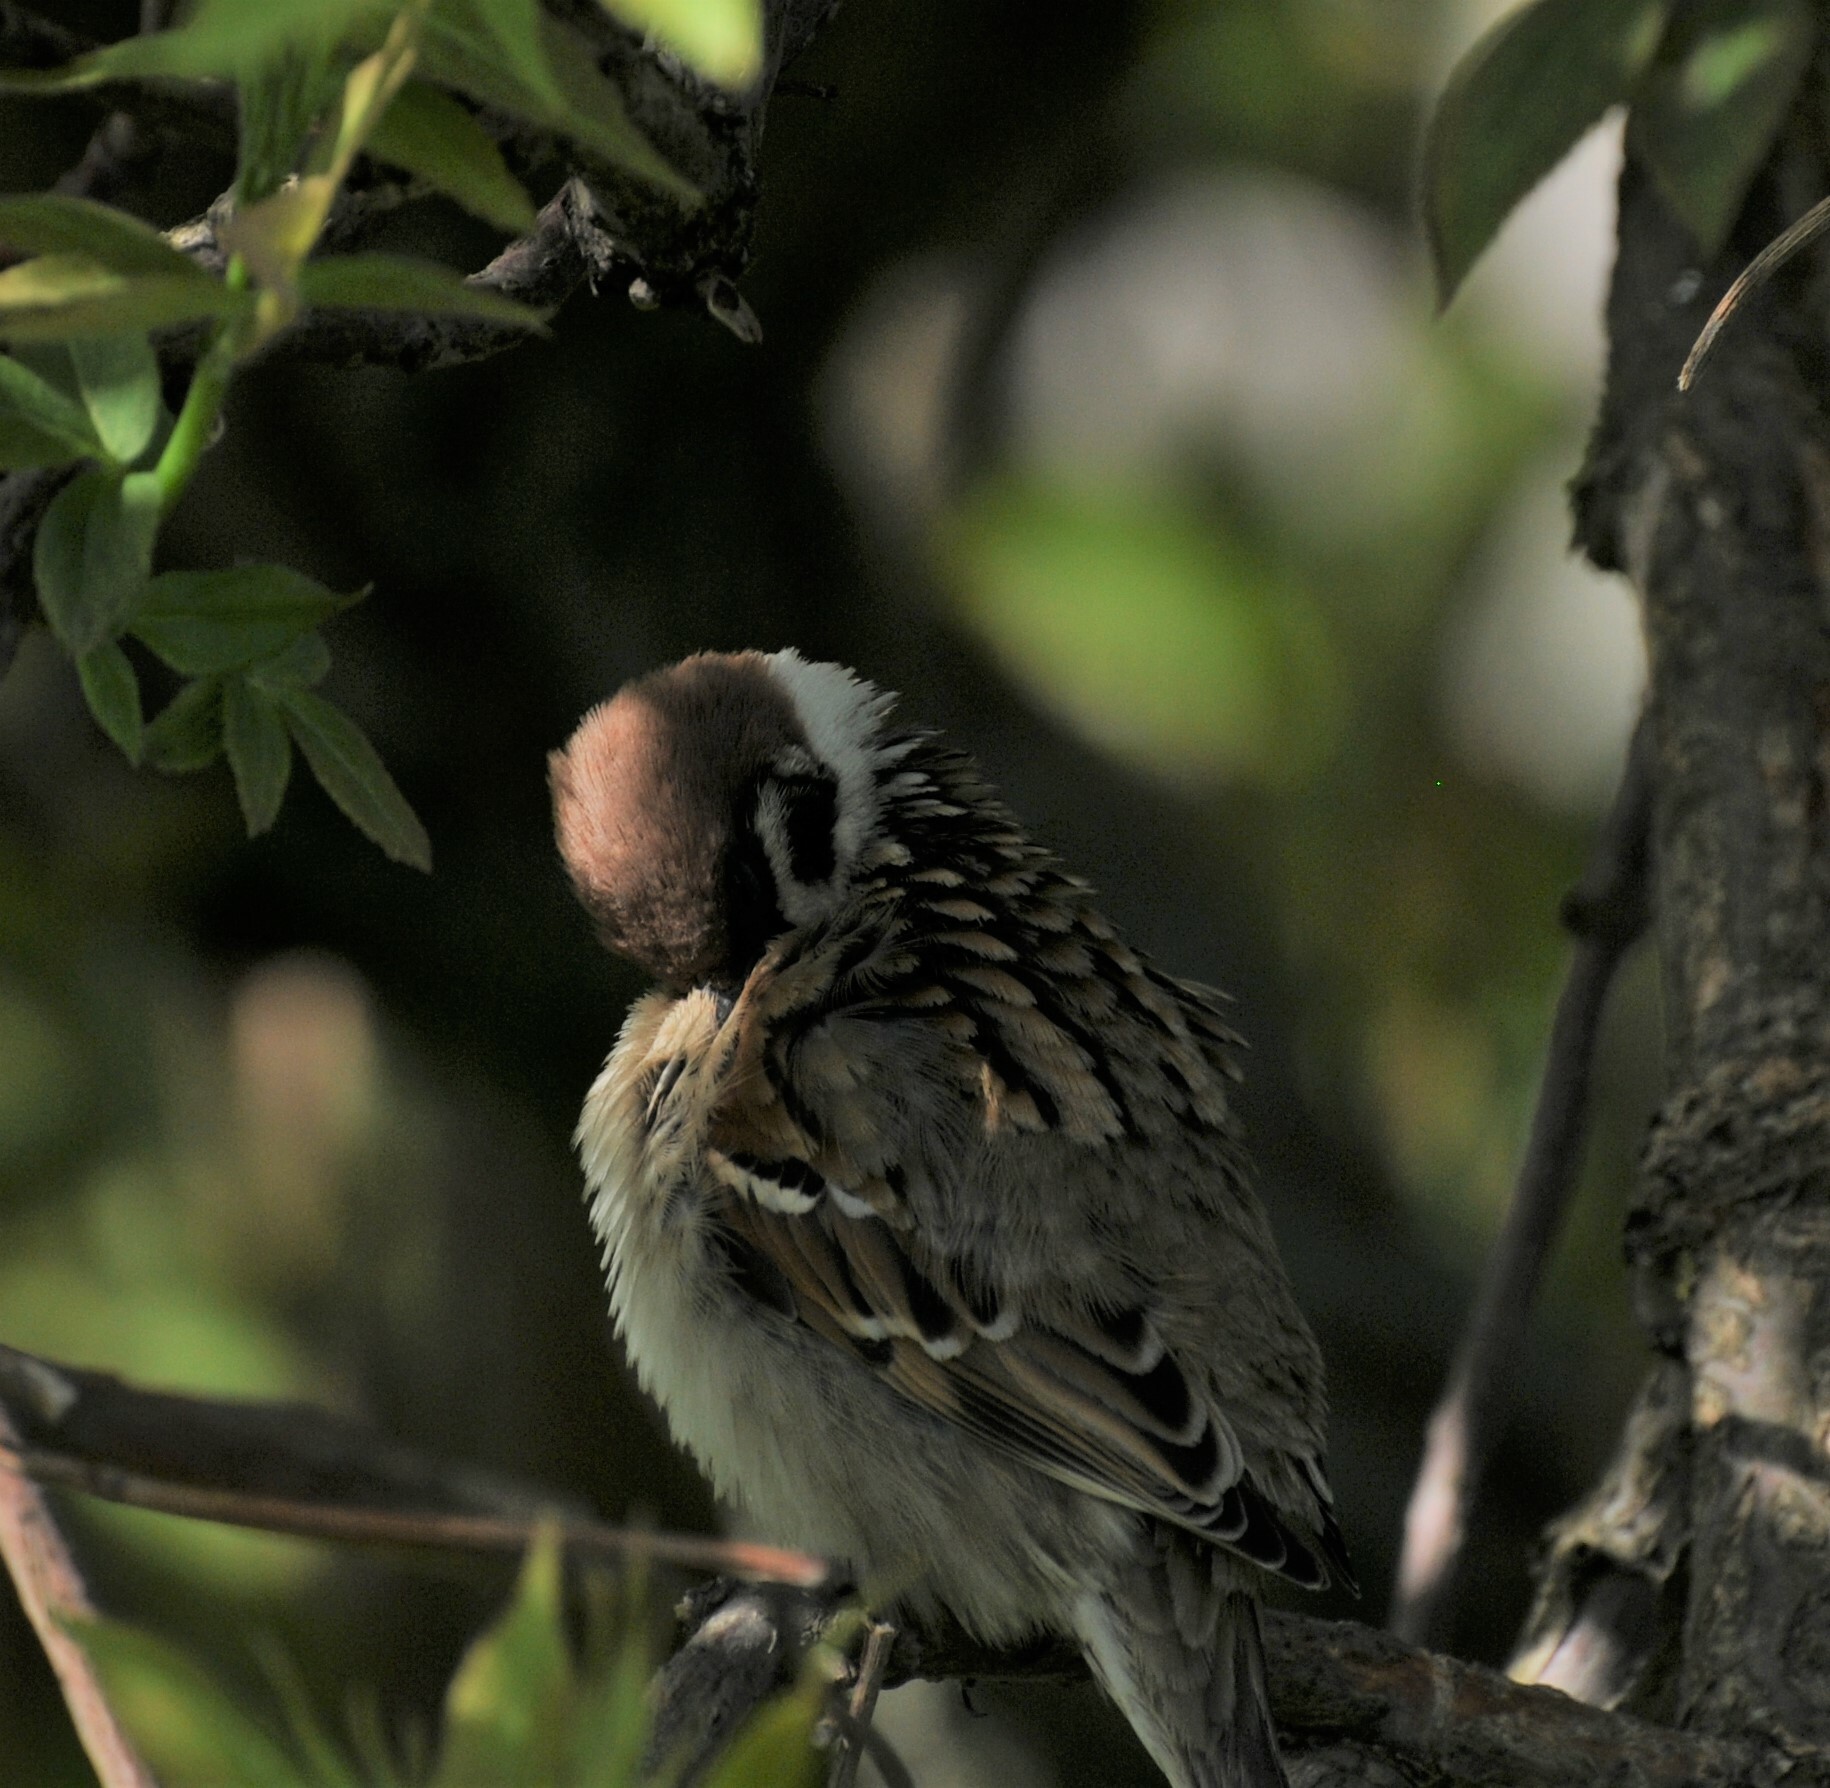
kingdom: Animalia
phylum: Chordata
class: Aves
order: Passeriformes
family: Passeridae
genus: Passer
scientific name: Passer montanus
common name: Eurasian tree sparrow
